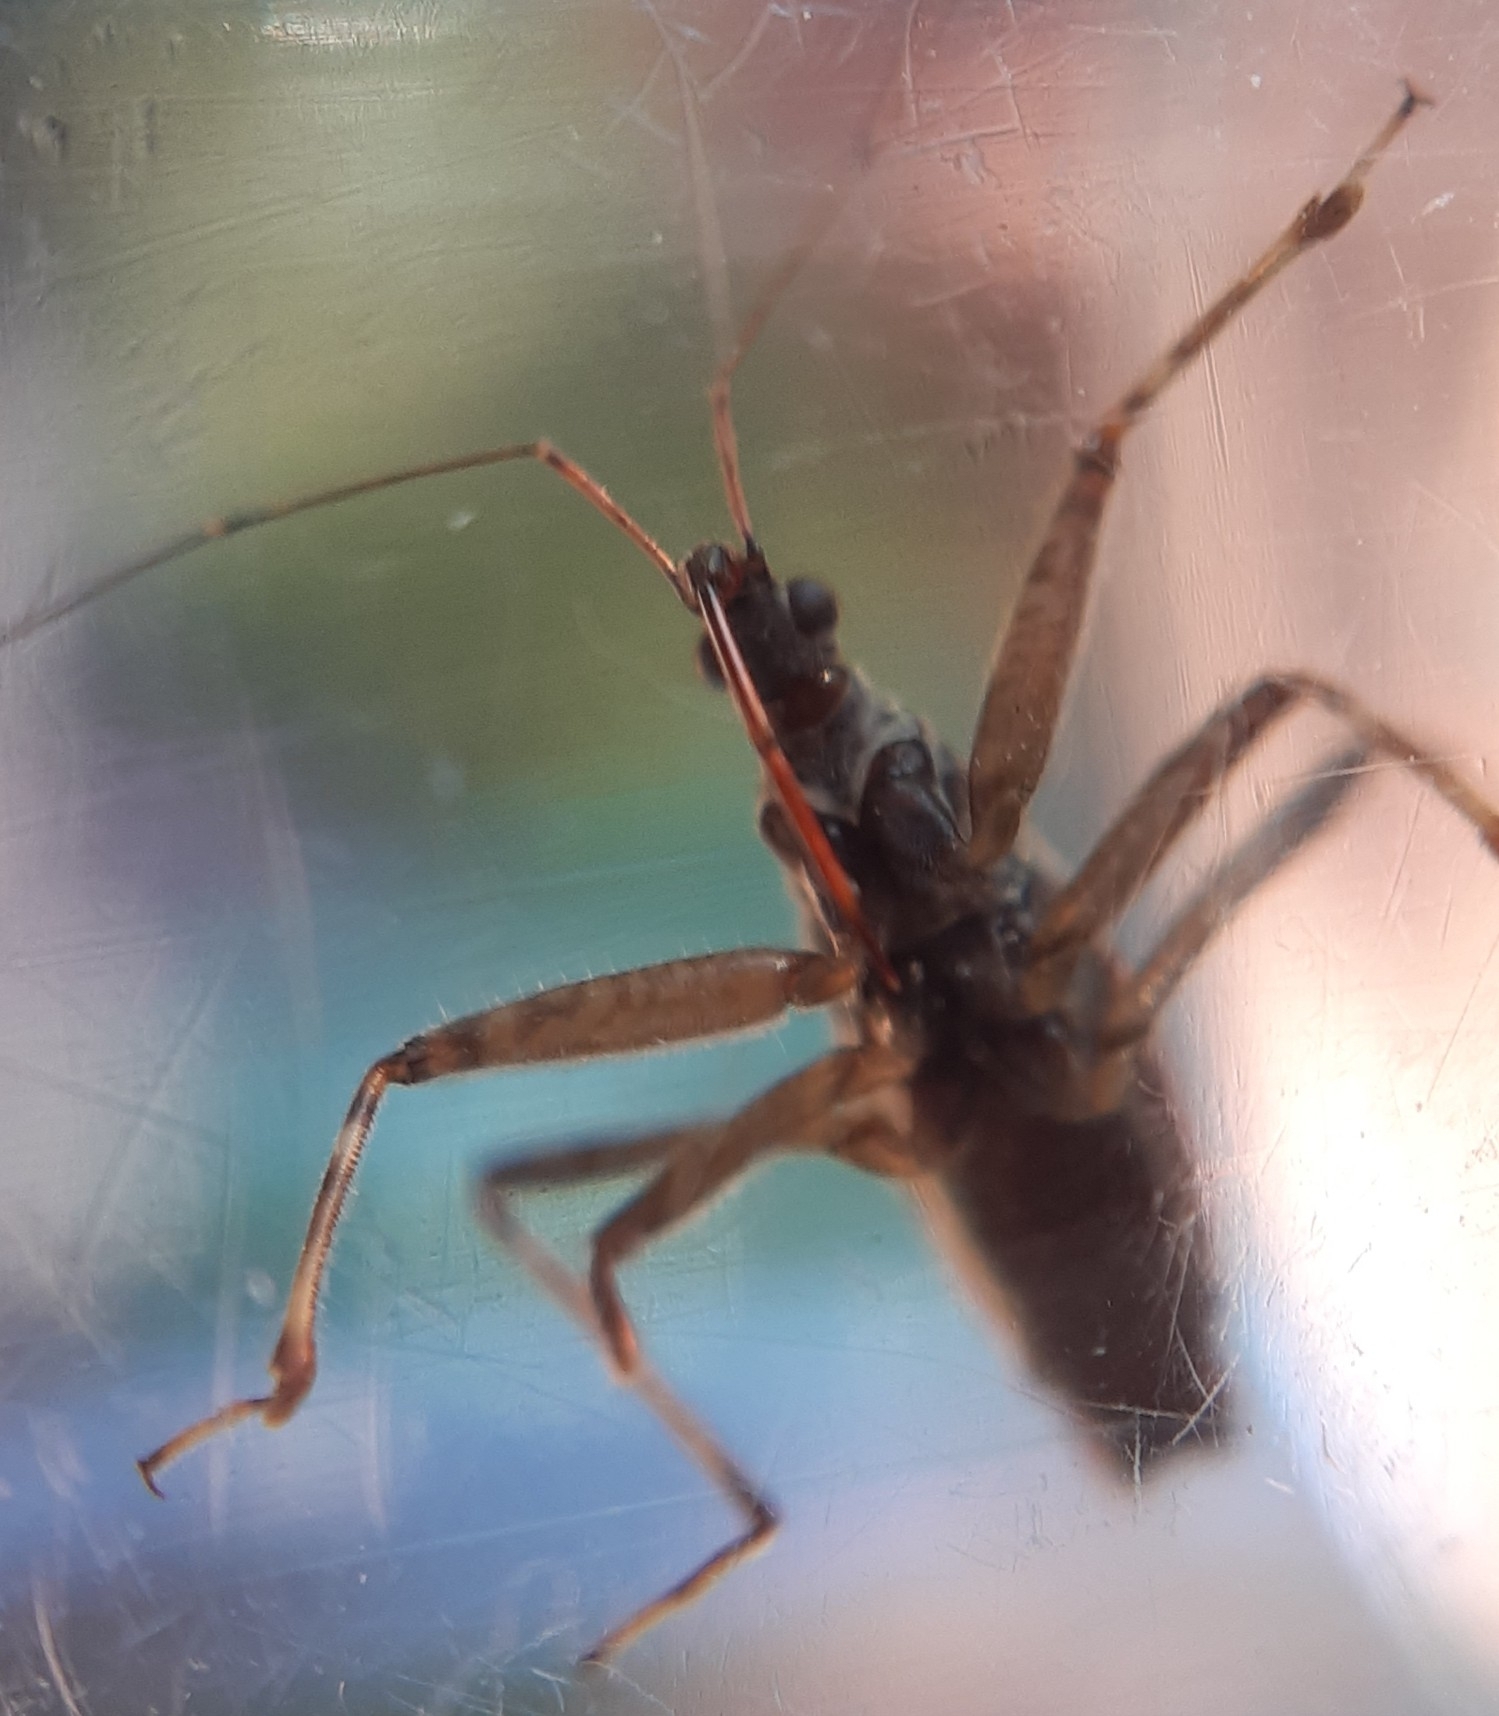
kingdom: Animalia
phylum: Arthropoda
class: Insecta
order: Hemiptera
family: Nabidae
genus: Himacerus
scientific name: Himacerus apterus
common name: Tree damsel bug
